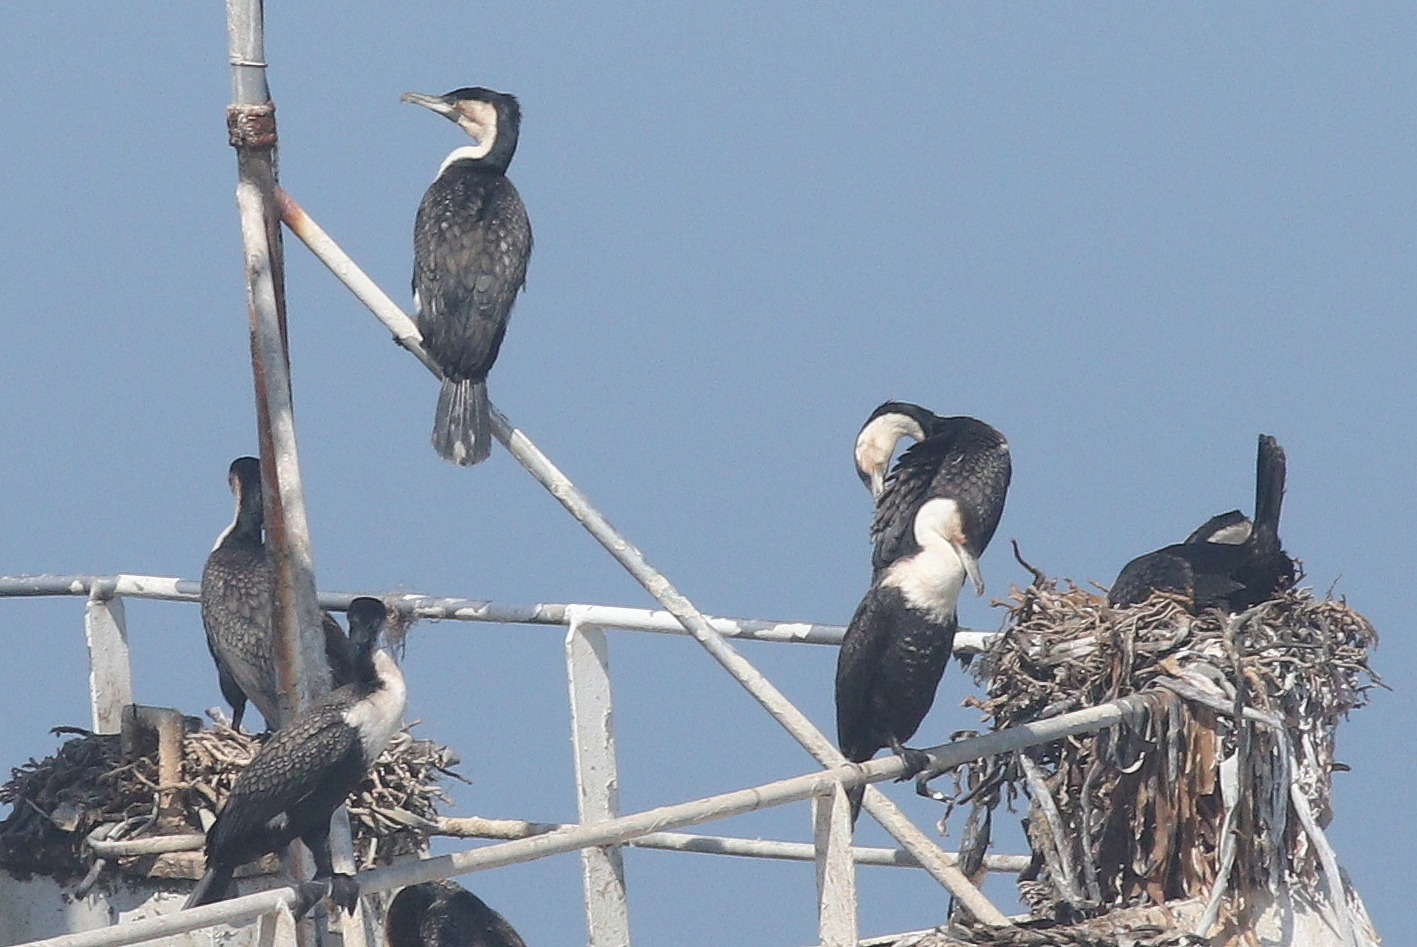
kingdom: Animalia
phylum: Chordata
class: Aves
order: Suliformes
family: Phalacrocoracidae
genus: Phalacrocorax
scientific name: Phalacrocorax carbo
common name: Great cormorant
